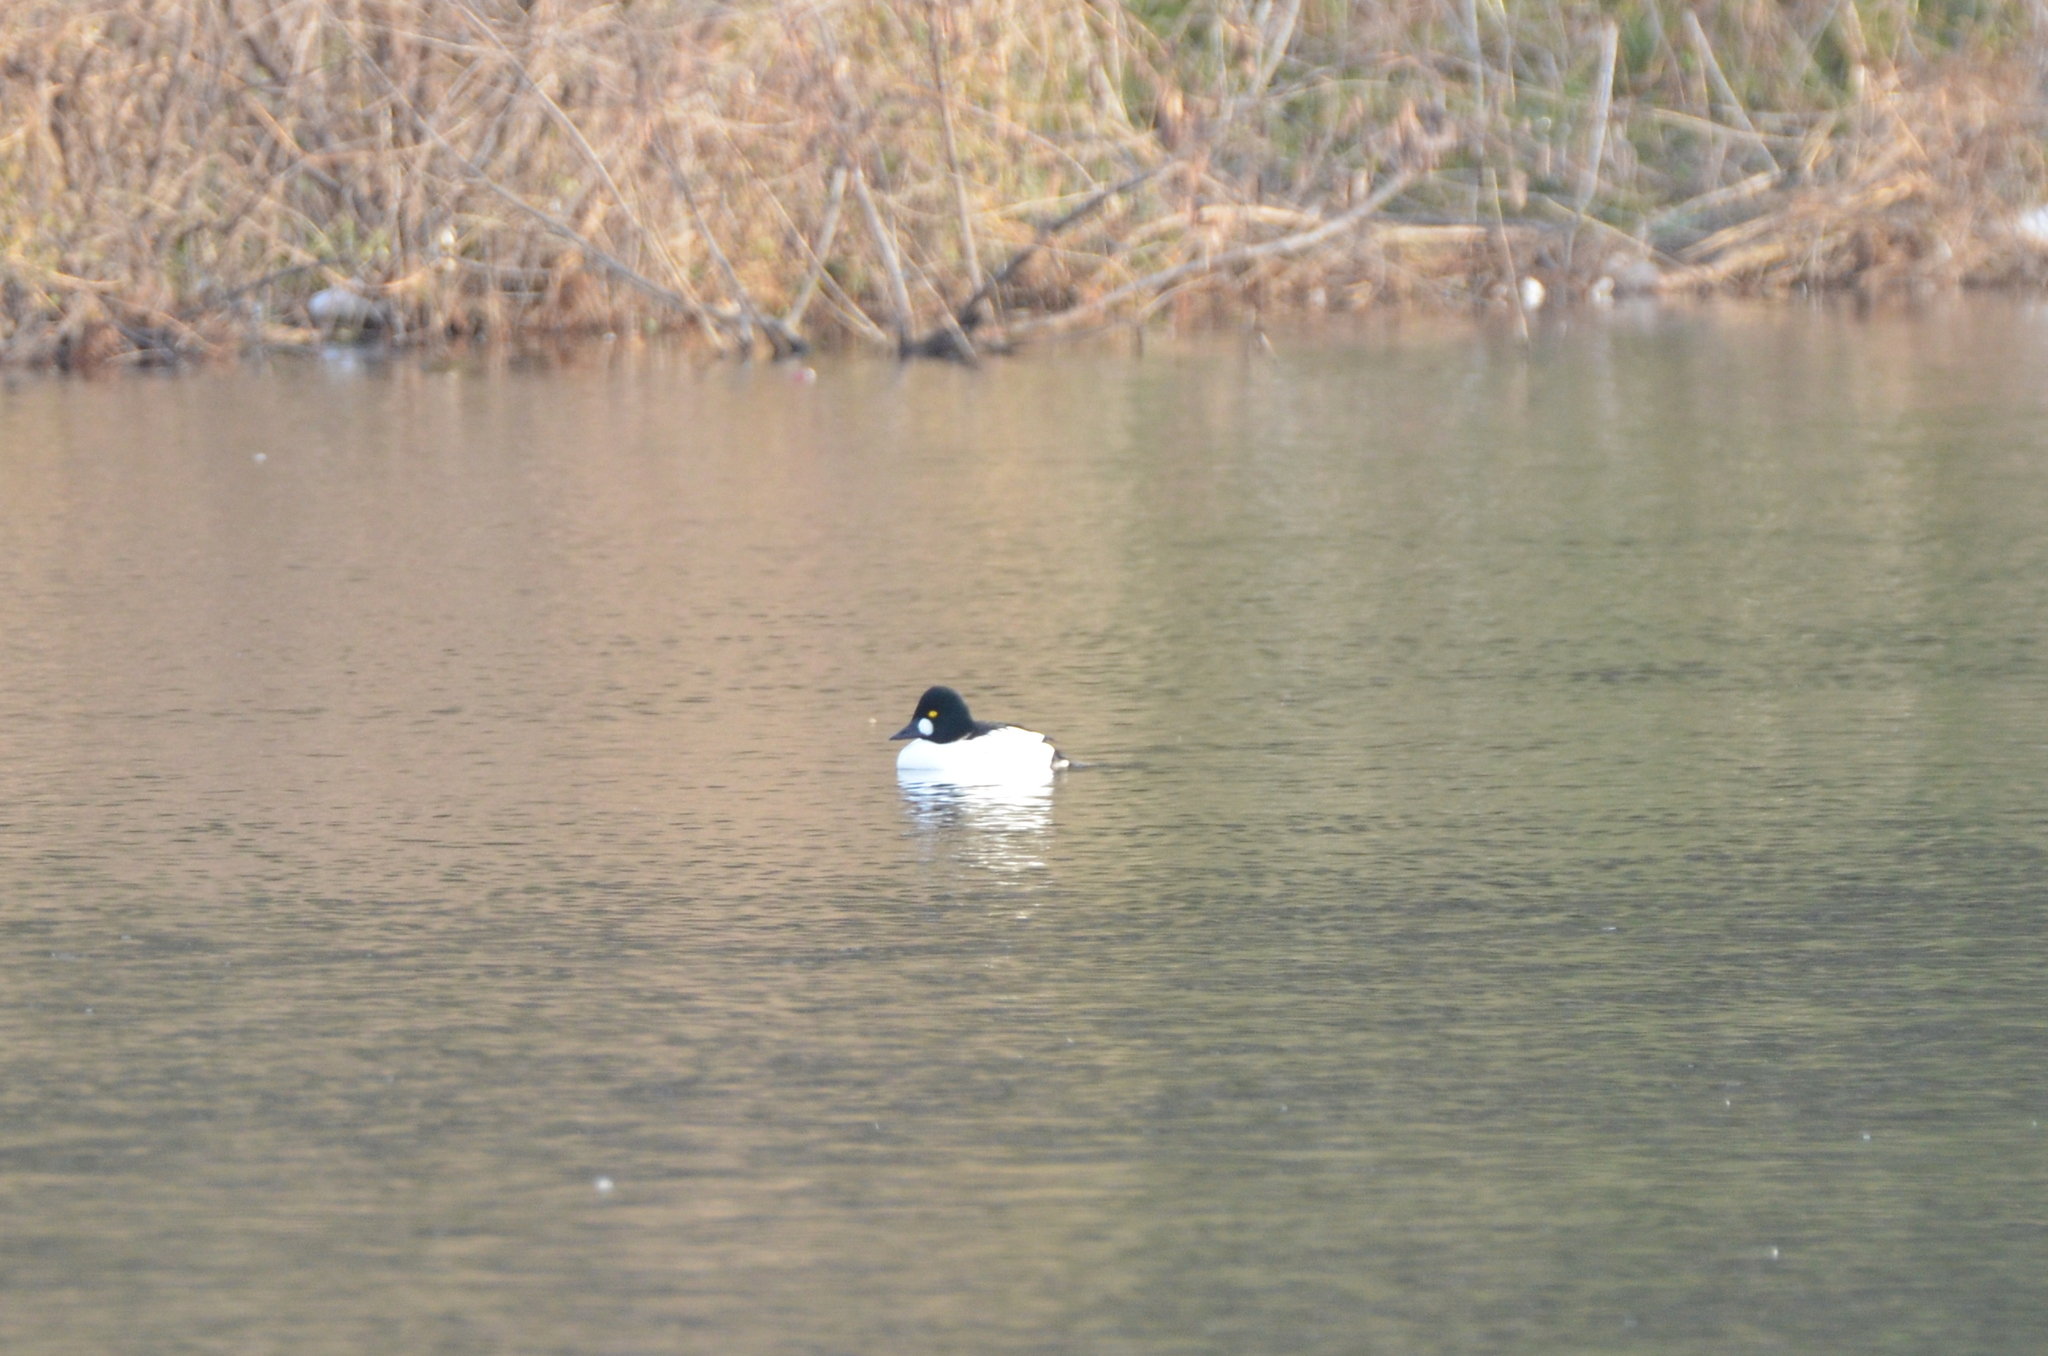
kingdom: Animalia
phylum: Chordata
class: Aves
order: Anseriformes
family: Anatidae
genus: Bucephala
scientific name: Bucephala clangula
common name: Common goldeneye
